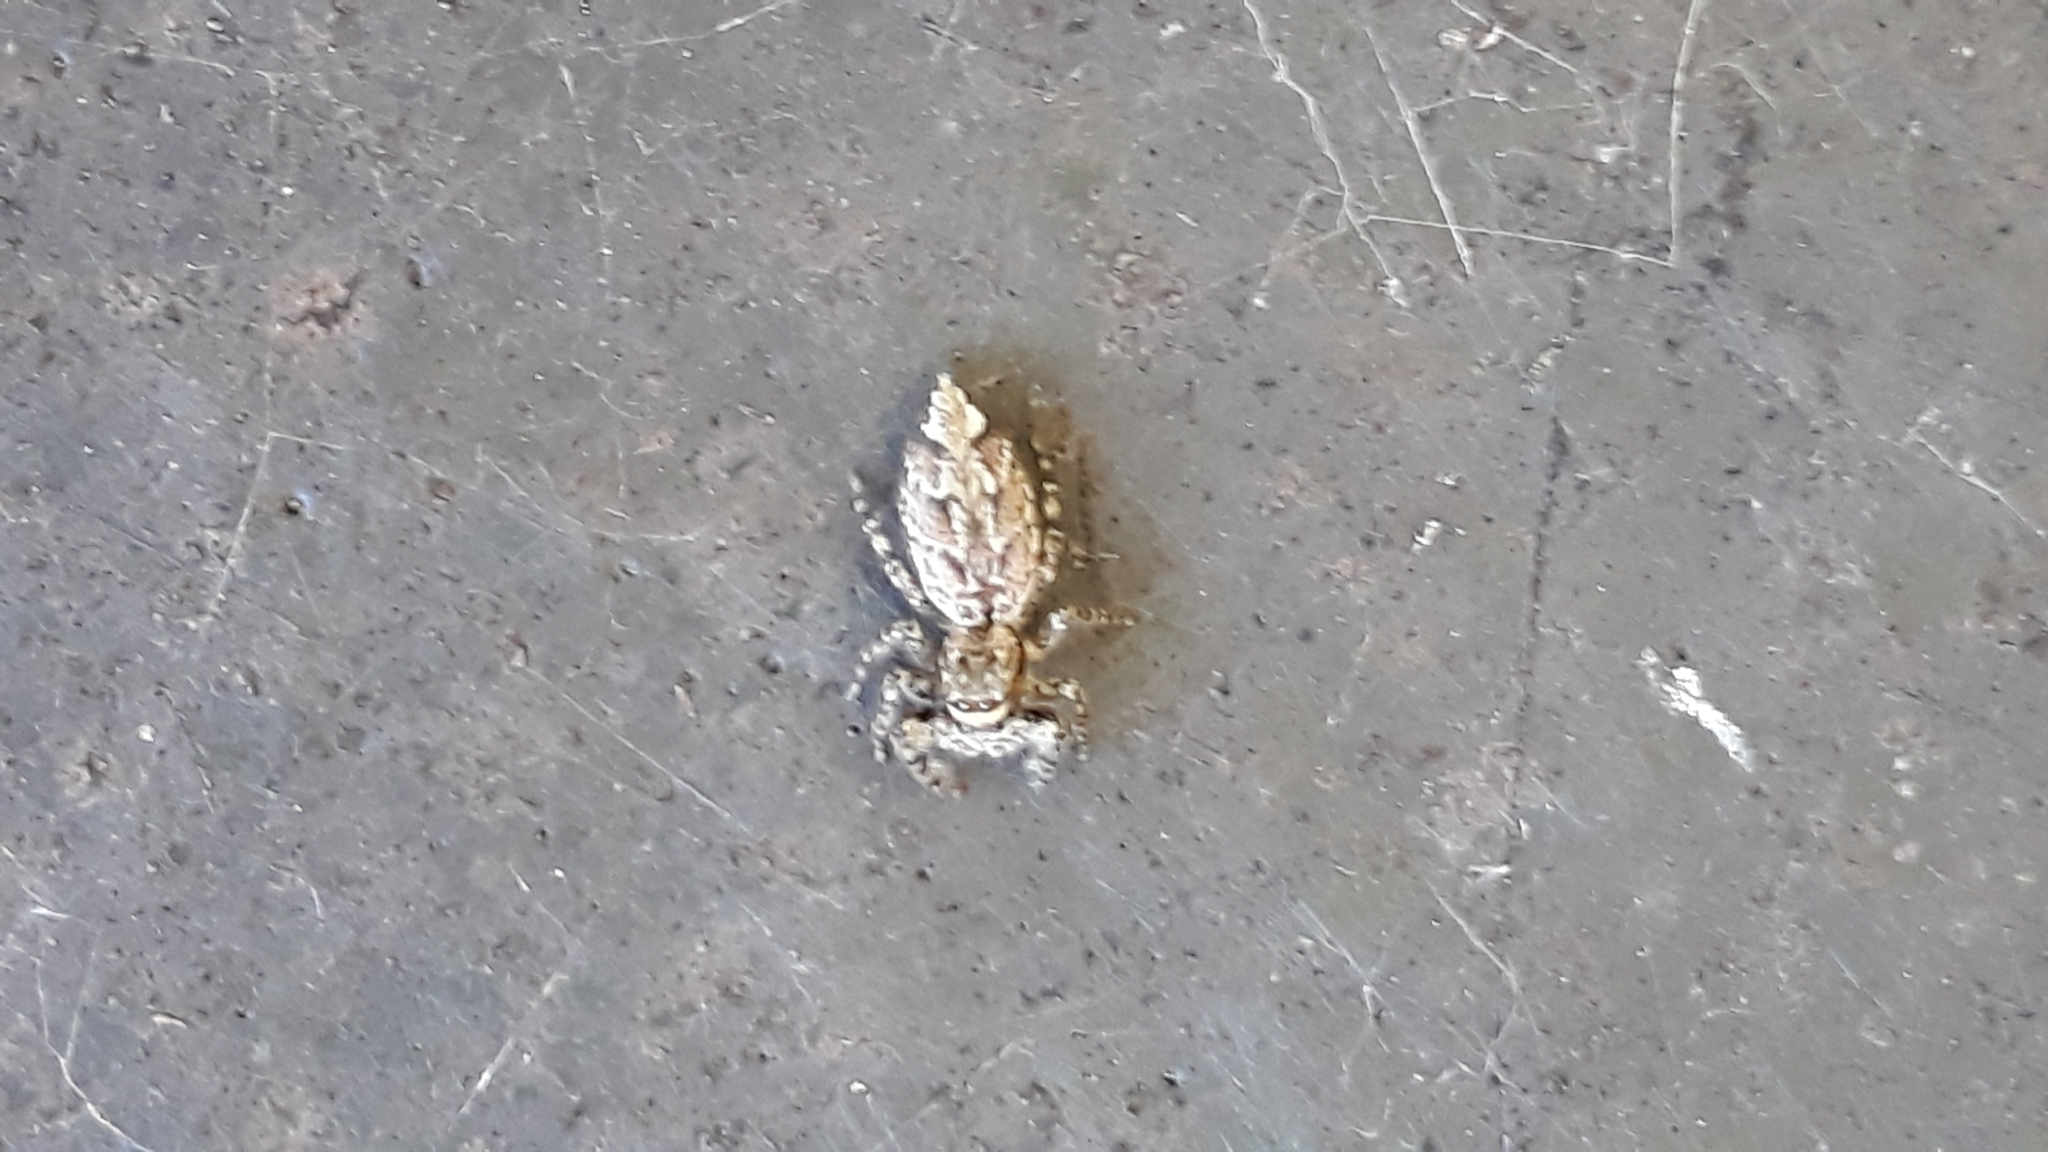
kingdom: Animalia
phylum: Arthropoda
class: Arachnida
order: Araneae
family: Salticidae
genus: Marpissa
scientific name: Marpissa muscosa
